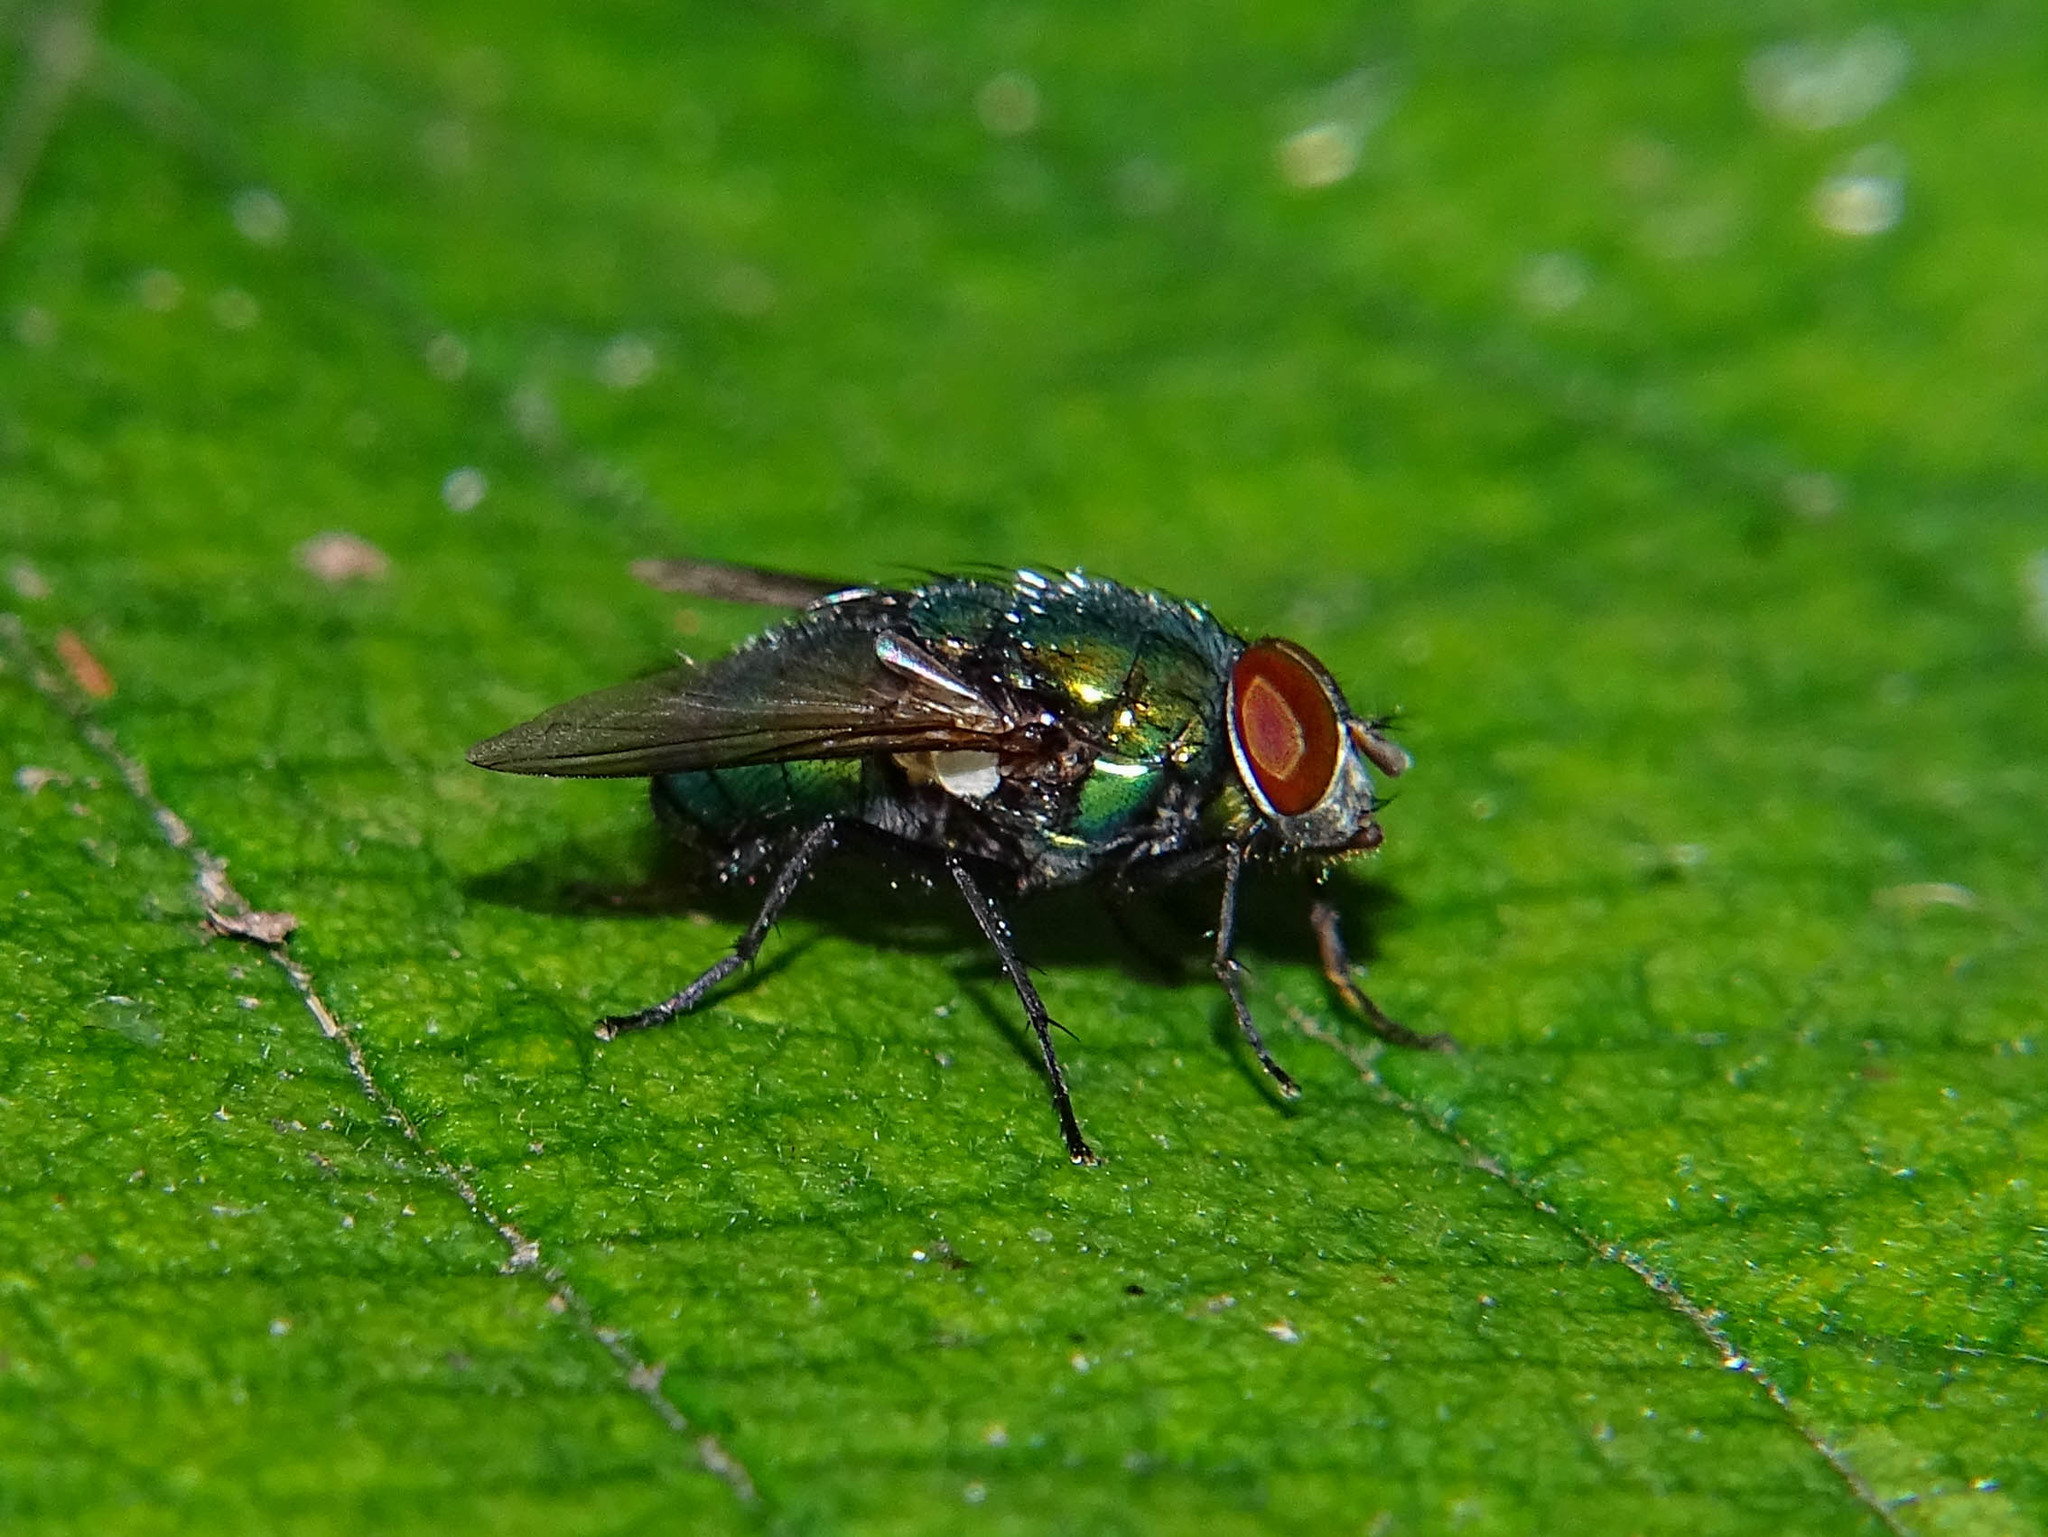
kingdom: Animalia
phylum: Arthropoda
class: Insecta
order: Diptera
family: Calliphoridae
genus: Lucilia
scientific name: Lucilia sericata
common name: Blow fly
